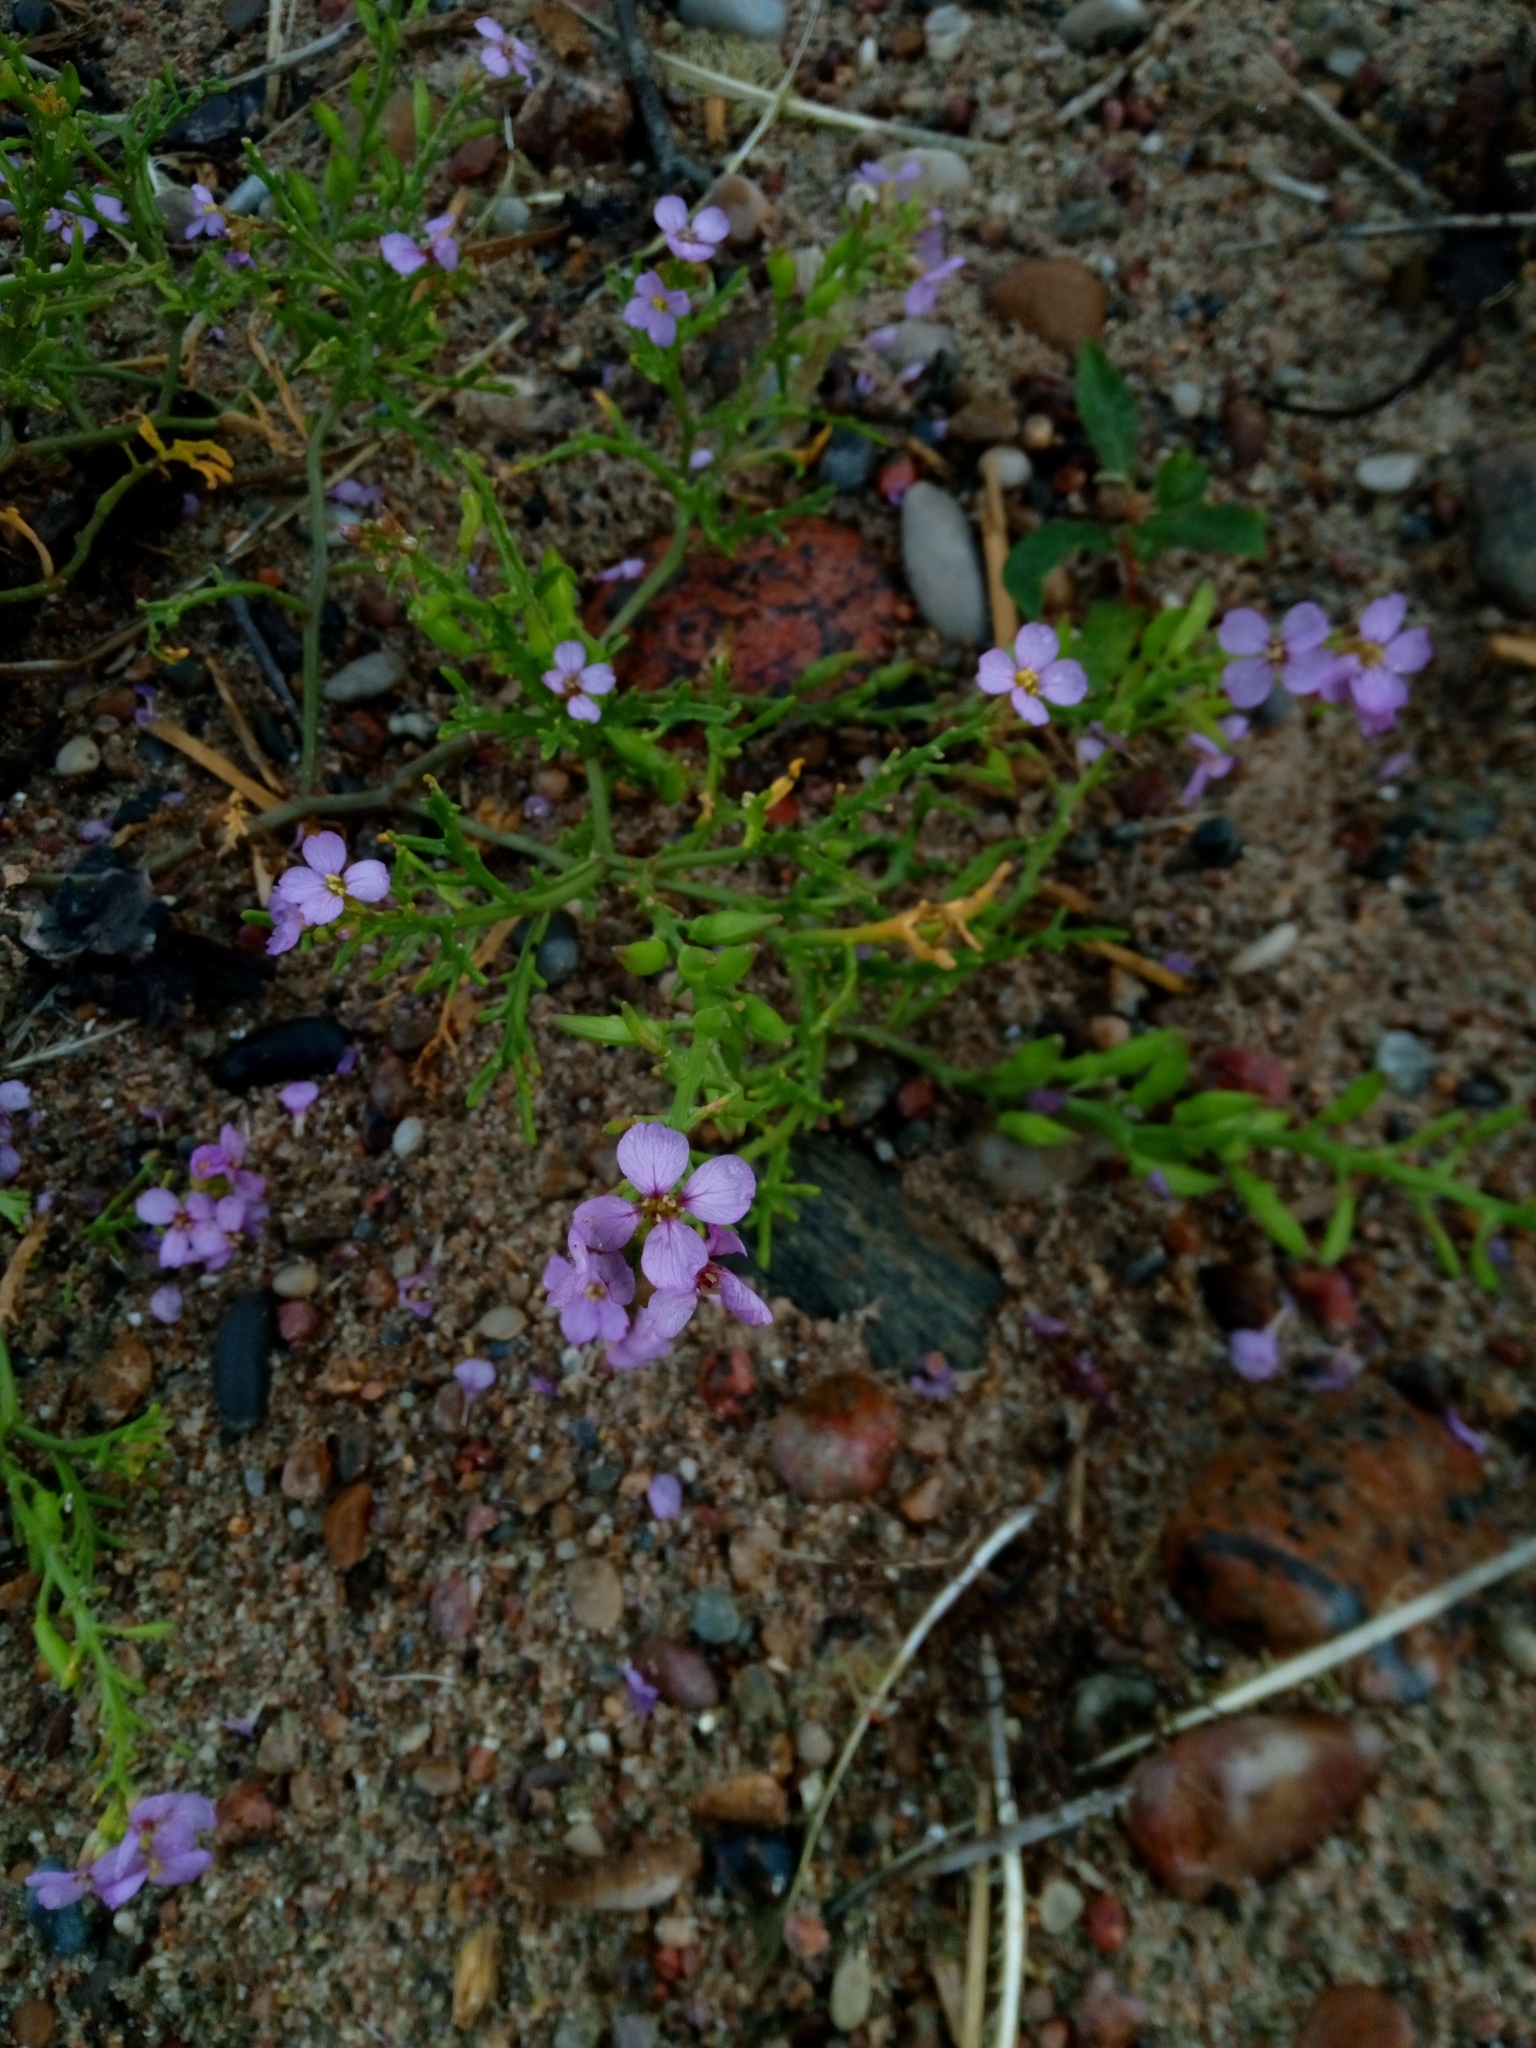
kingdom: Plantae
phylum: Tracheophyta
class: Magnoliopsida
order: Brassicales
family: Brassicaceae
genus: Cakile
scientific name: Cakile maritima
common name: Sea rocket
